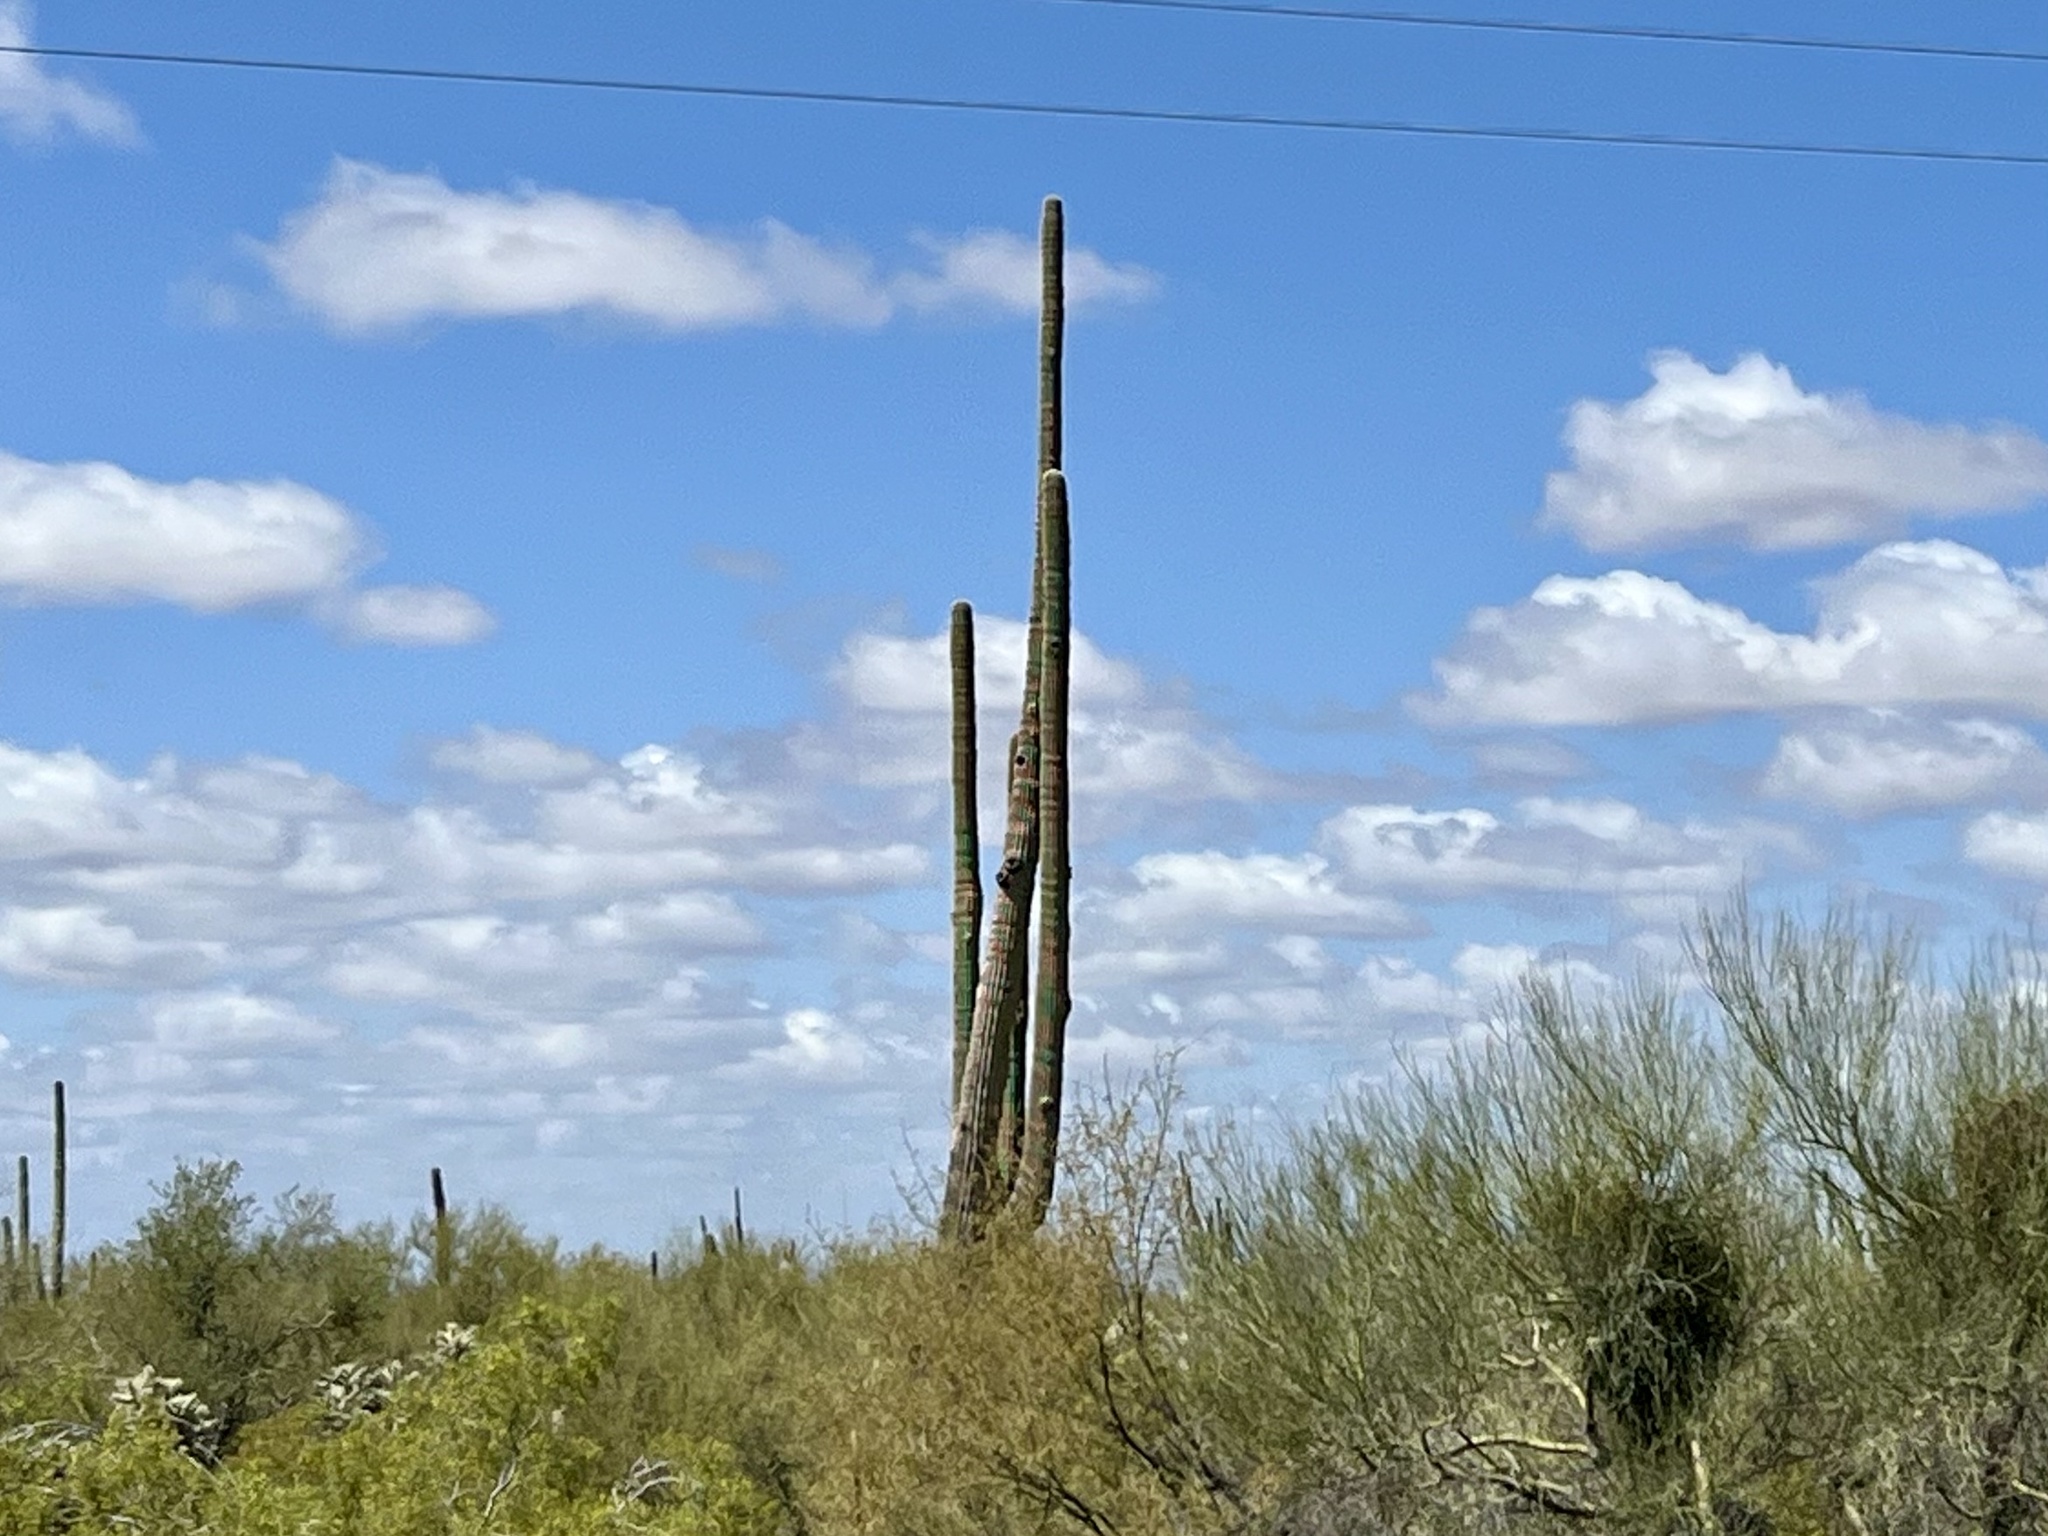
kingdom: Plantae
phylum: Tracheophyta
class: Magnoliopsida
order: Caryophyllales
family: Cactaceae
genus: Carnegiea
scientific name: Carnegiea gigantea
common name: Saguaro
